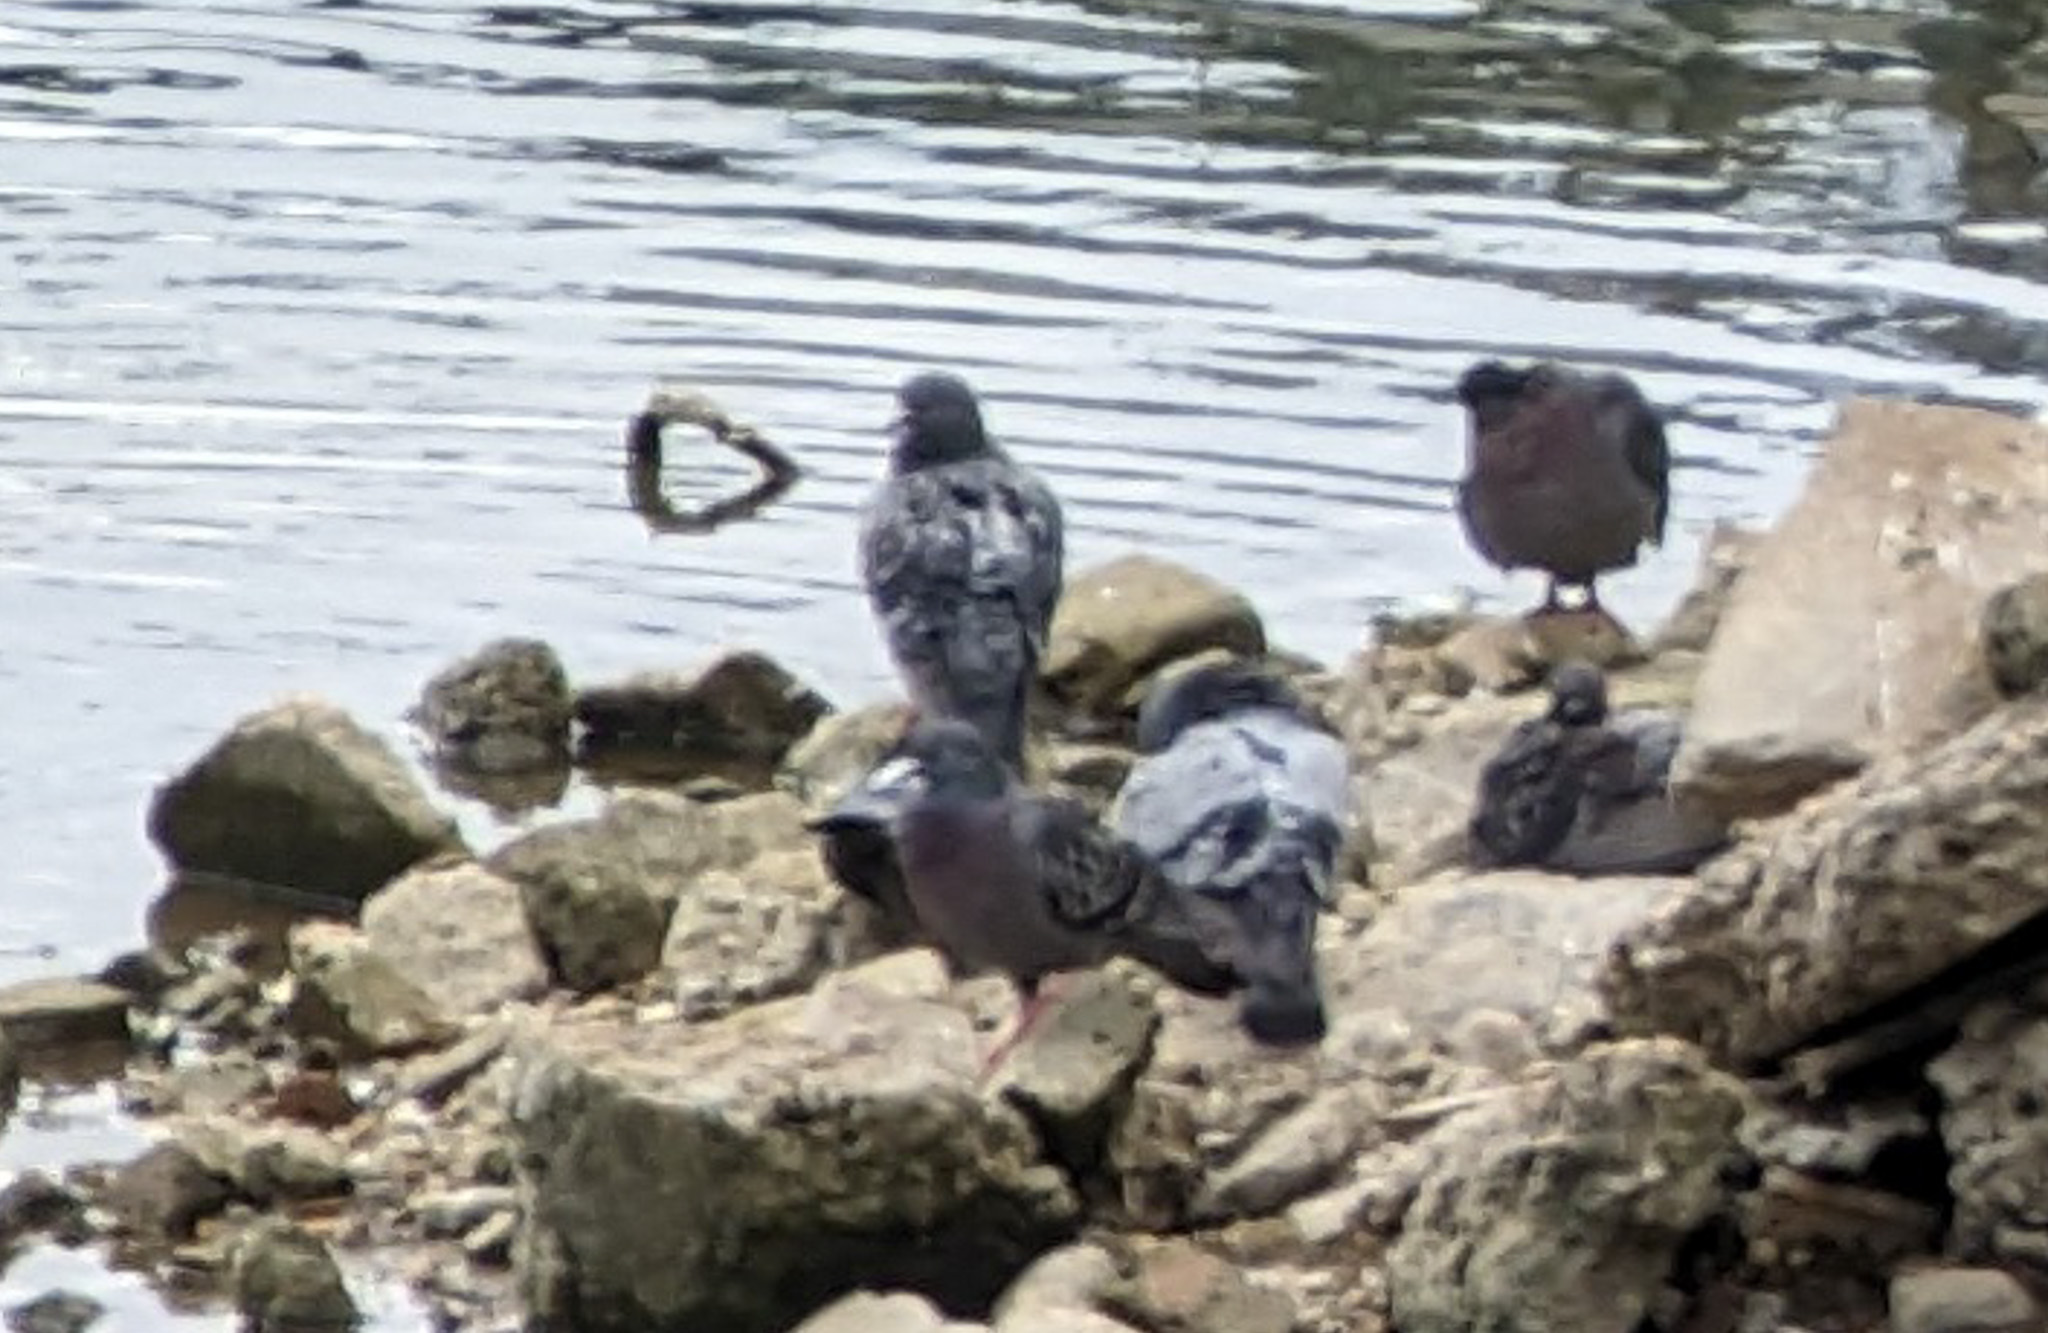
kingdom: Animalia
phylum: Chordata
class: Aves
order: Columbiformes
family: Columbidae
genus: Columba
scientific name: Columba livia
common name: Rock pigeon
